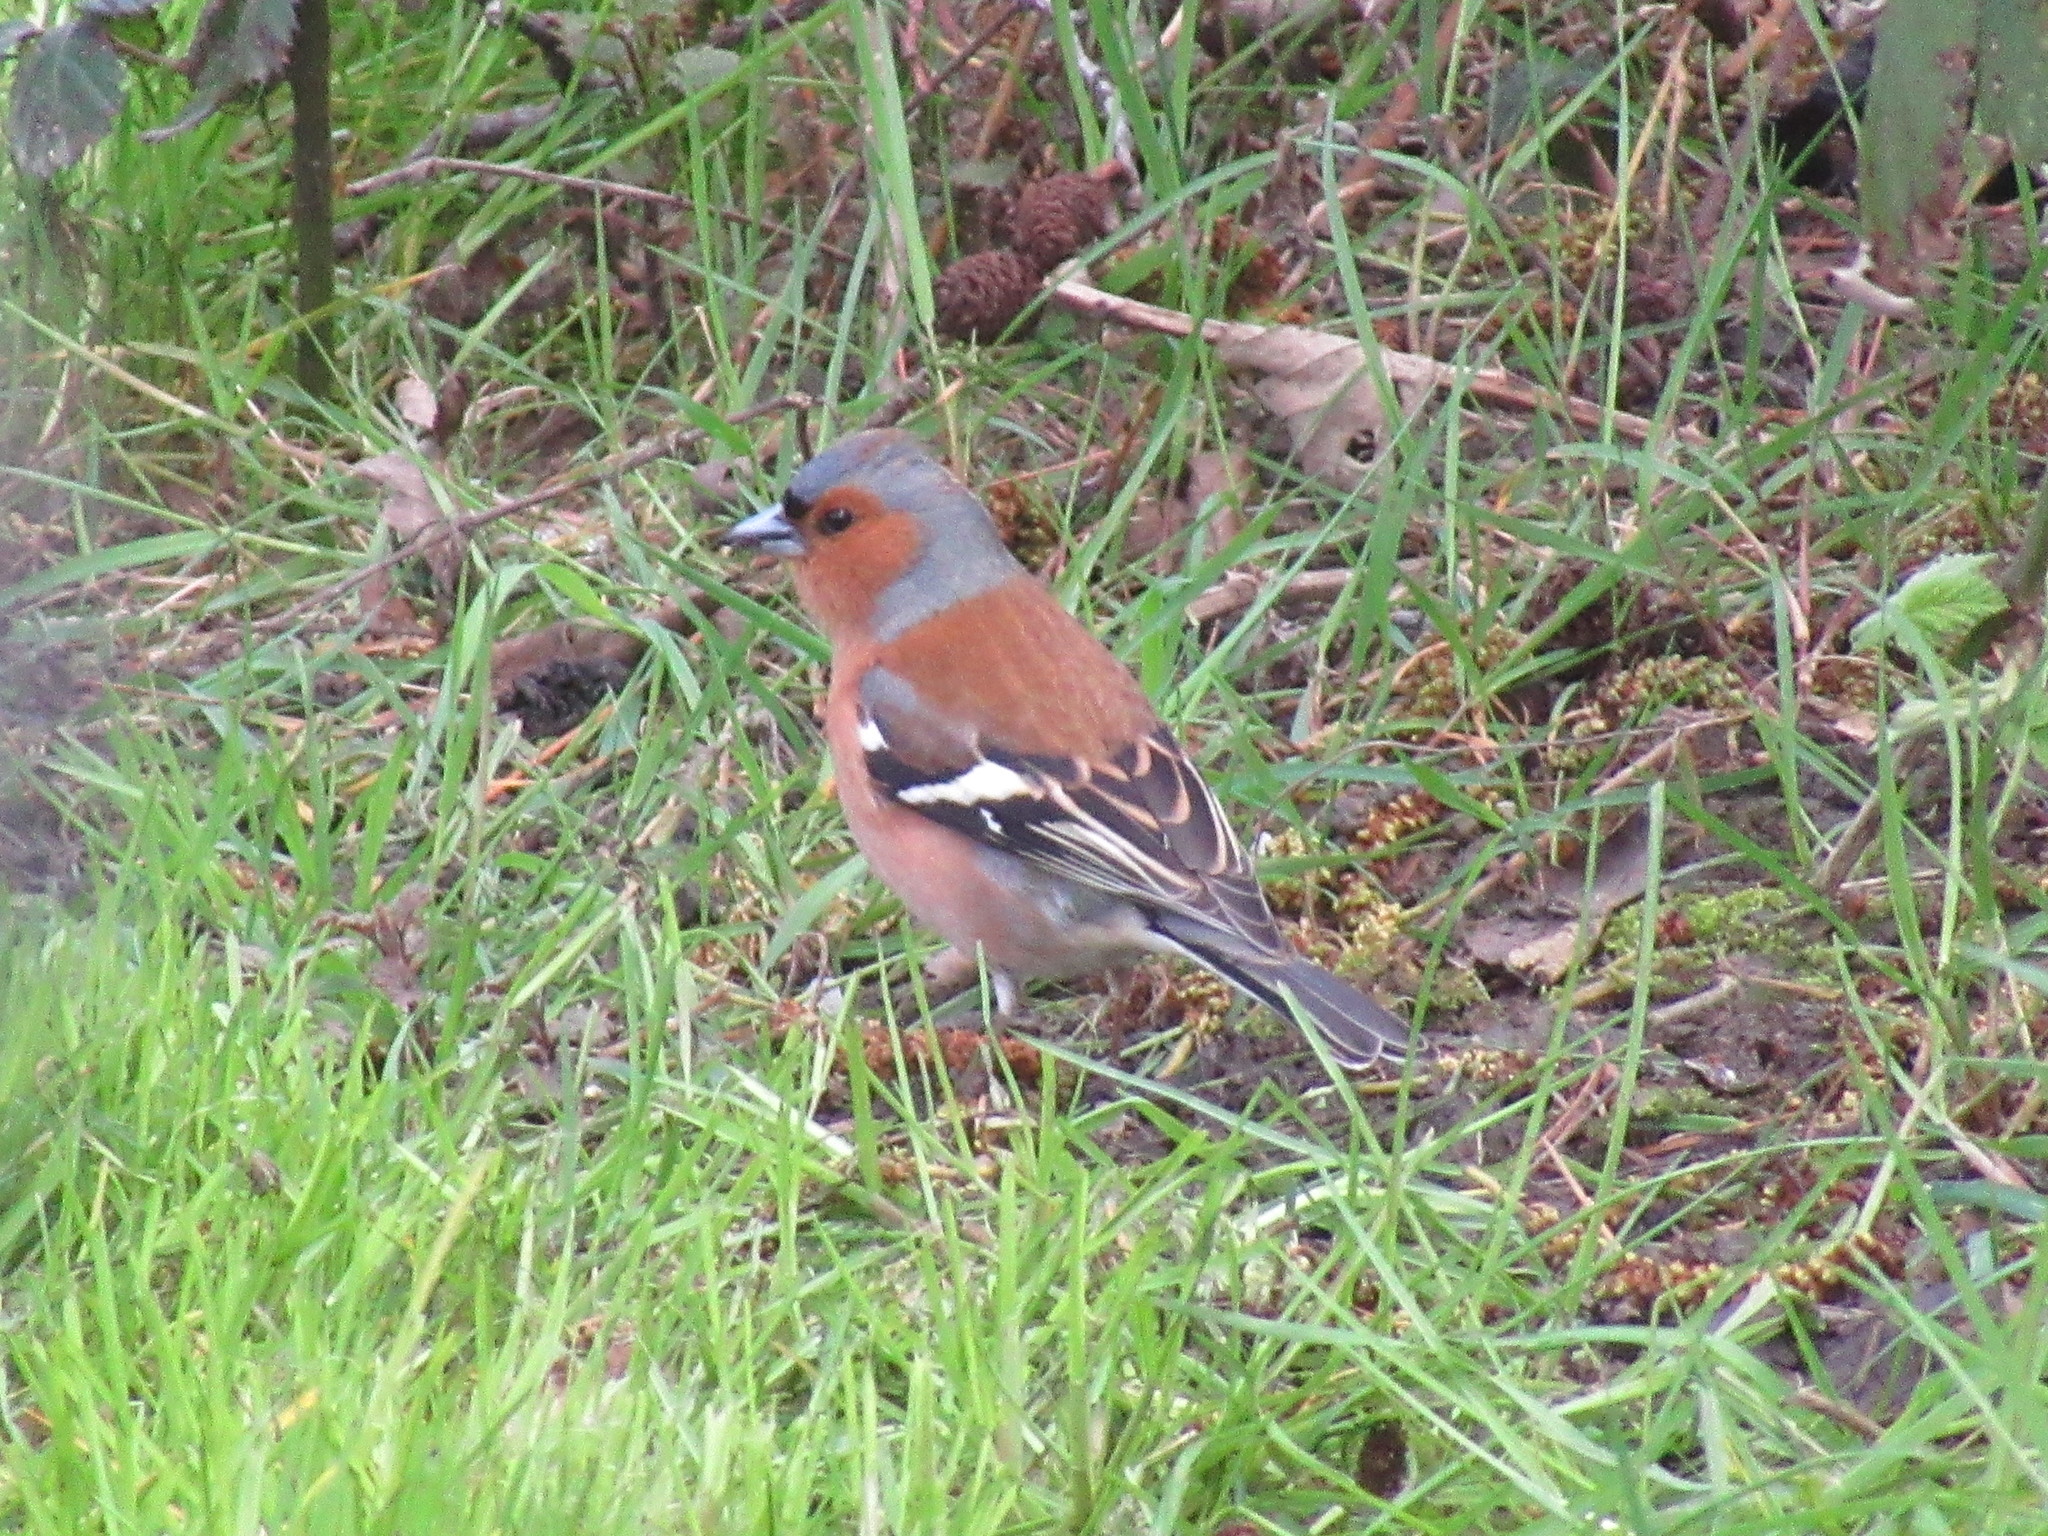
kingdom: Animalia
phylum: Chordata
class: Aves
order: Passeriformes
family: Fringillidae
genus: Fringilla
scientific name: Fringilla coelebs
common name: Common chaffinch
